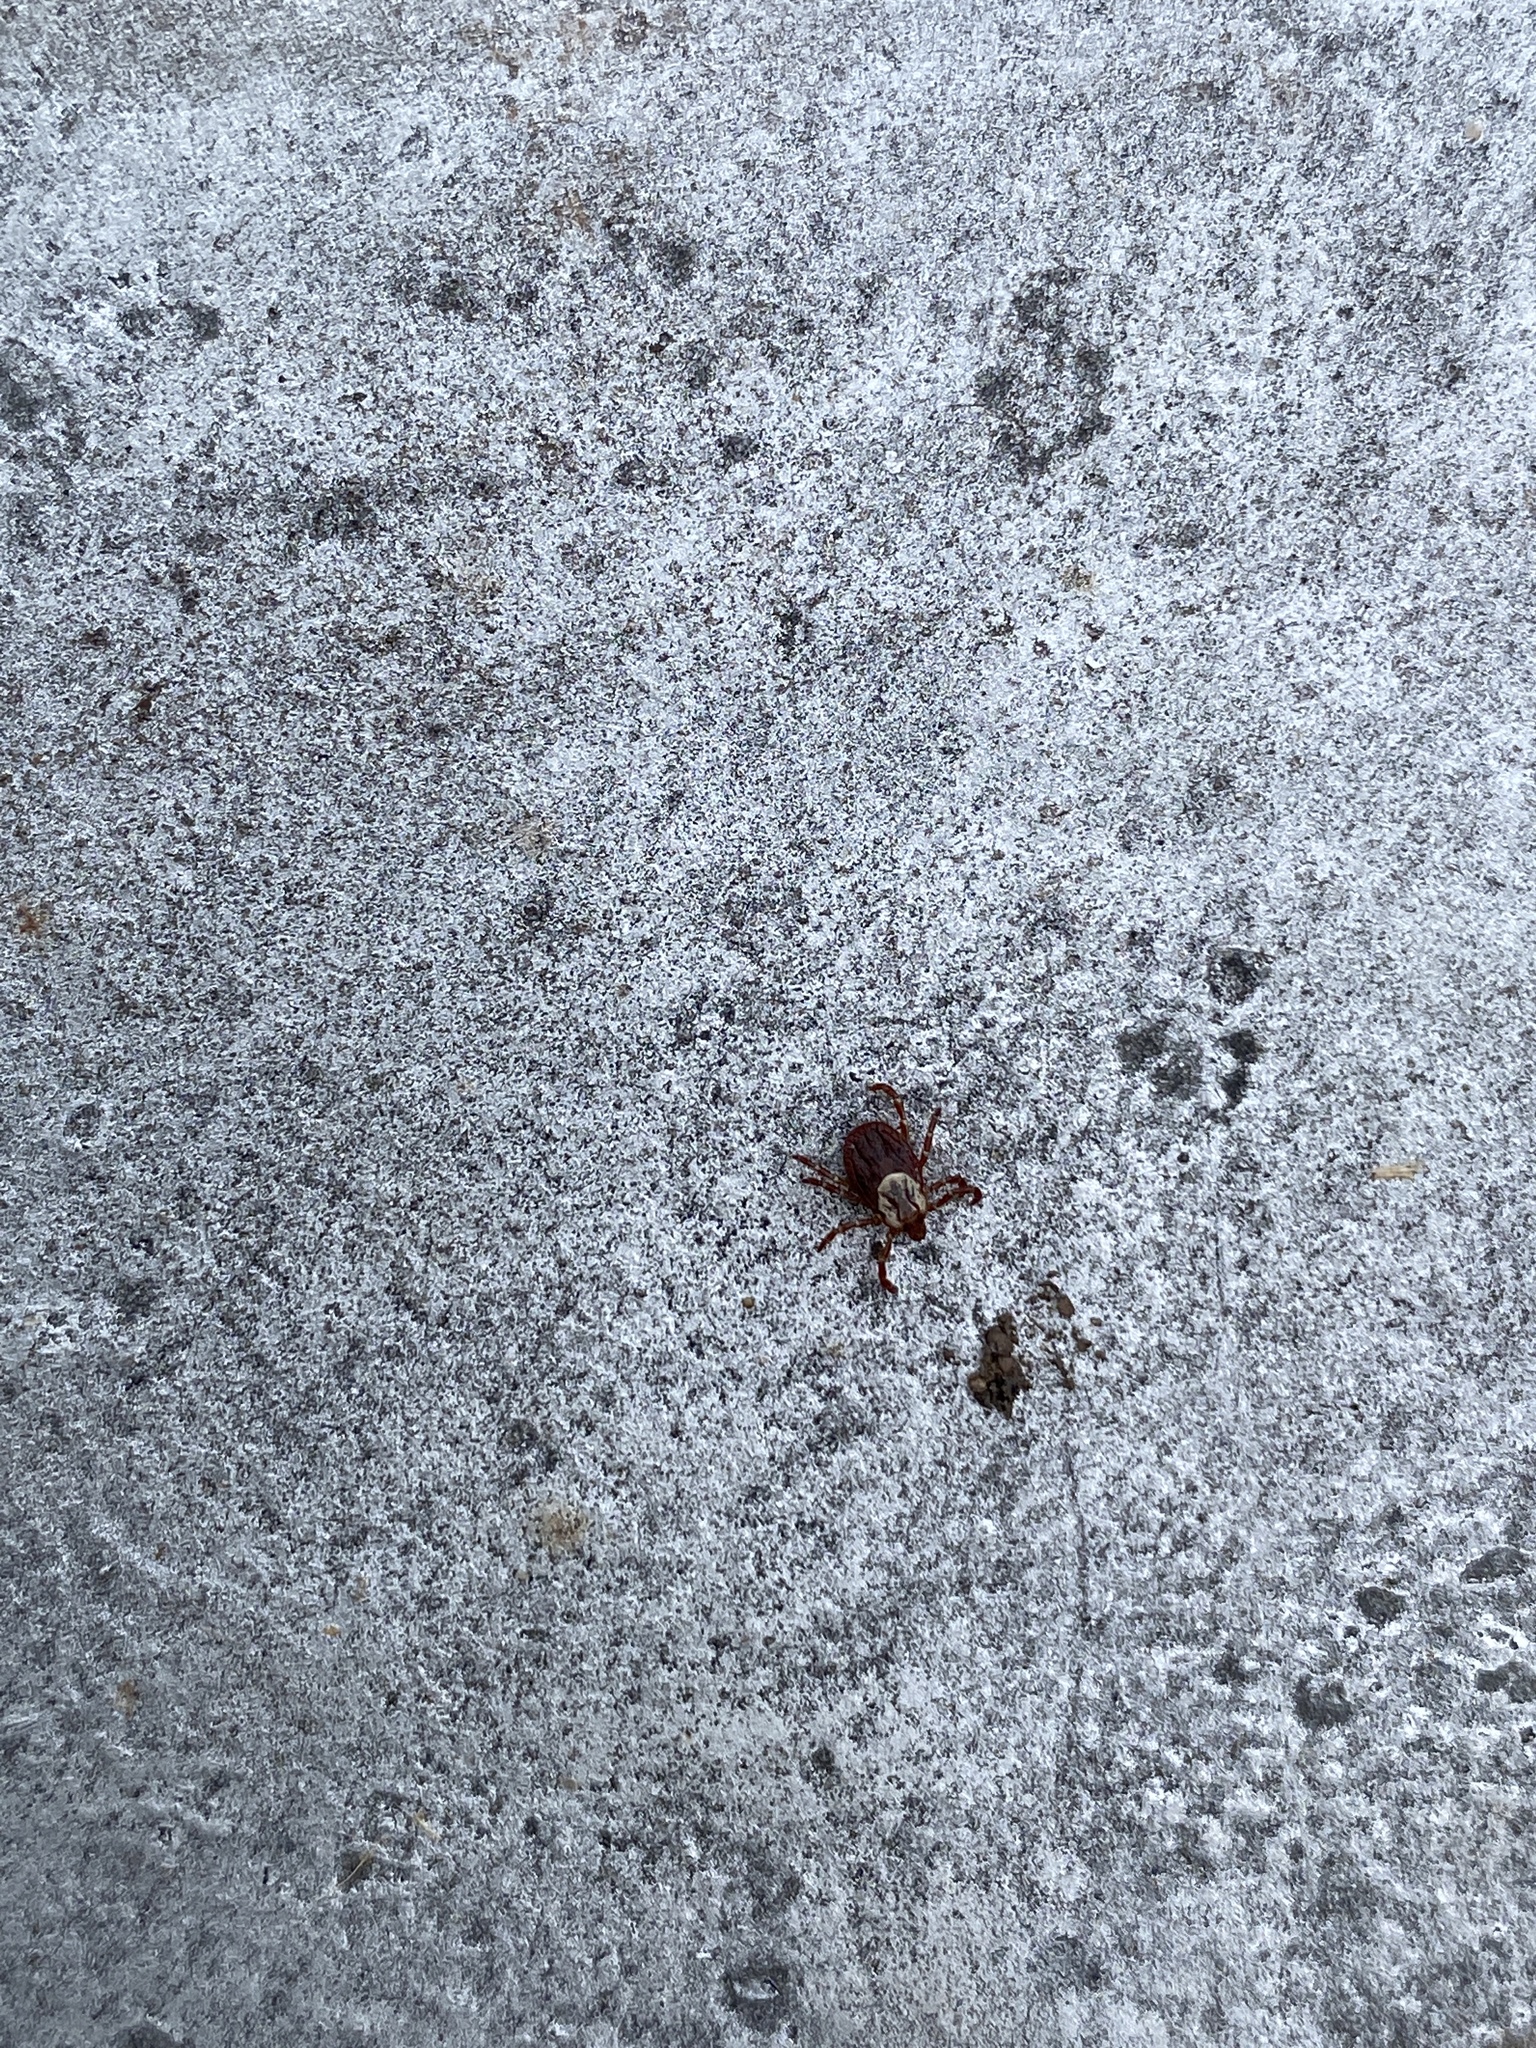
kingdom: Animalia
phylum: Arthropoda
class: Arachnida
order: Ixodida
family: Ixodidae
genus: Dermacentor
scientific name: Dermacentor variabilis
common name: American dog tick
